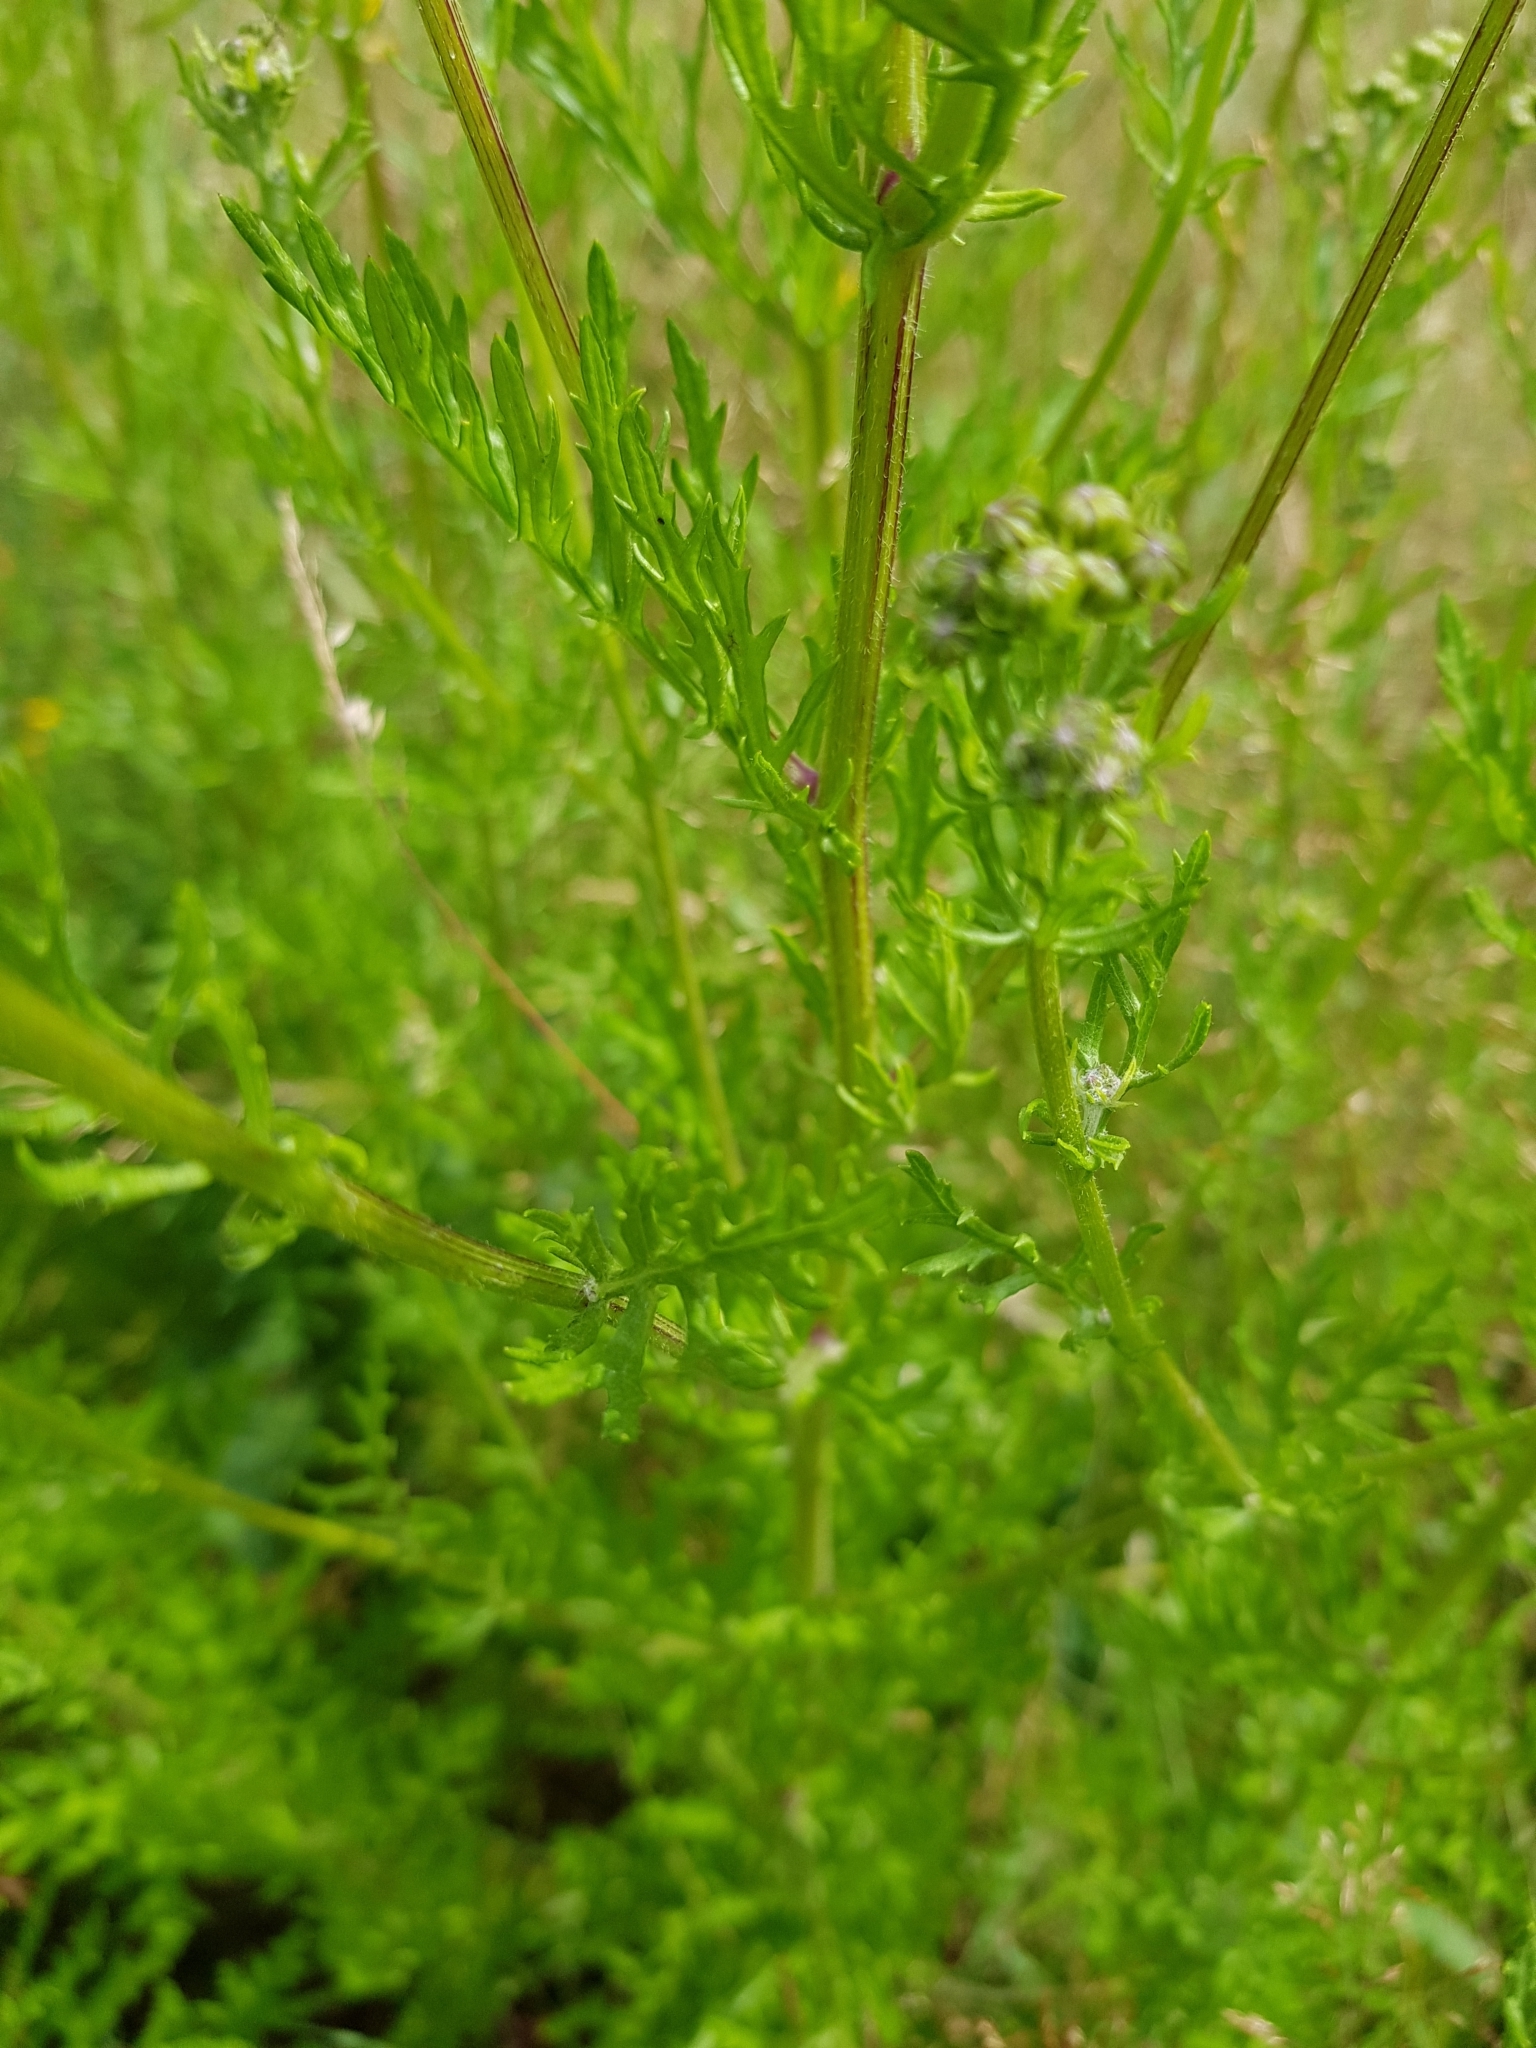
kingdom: Plantae
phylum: Tracheophyta
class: Magnoliopsida
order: Asterales
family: Asteraceae
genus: Jacobaea
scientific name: Jacobaea erucifolia
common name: Hoary ragwort
